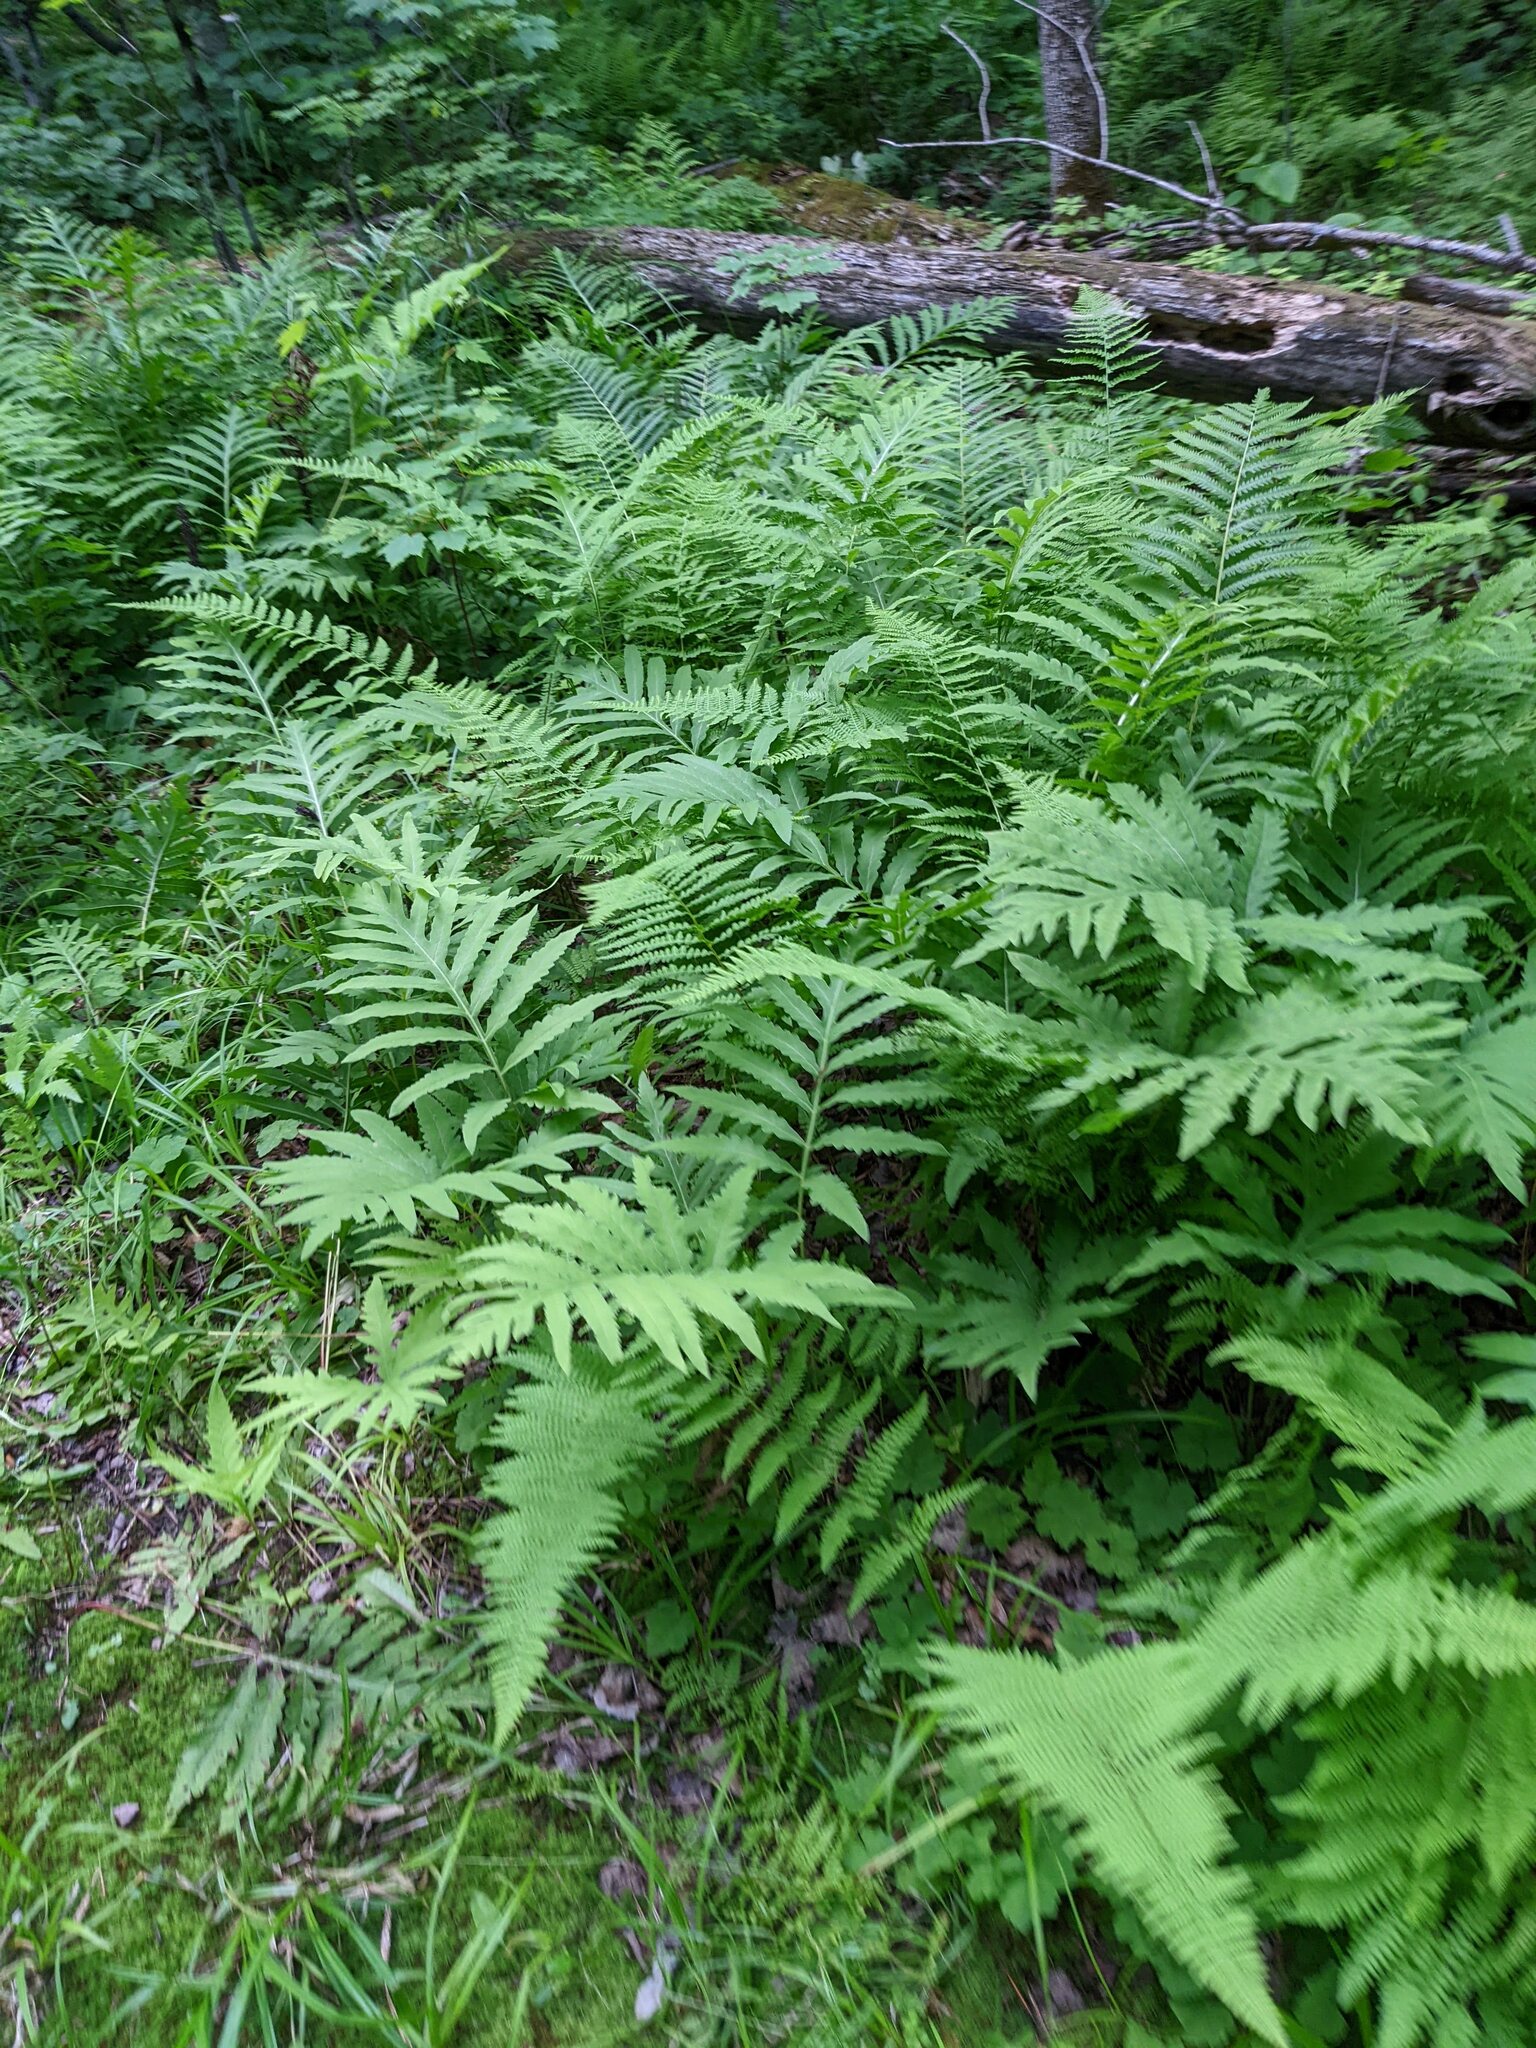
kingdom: Plantae
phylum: Tracheophyta
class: Polypodiopsida
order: Polypodiales
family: Onocleaceae
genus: Onoclea
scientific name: Onoclea sensibilis
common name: Sensitive fern
